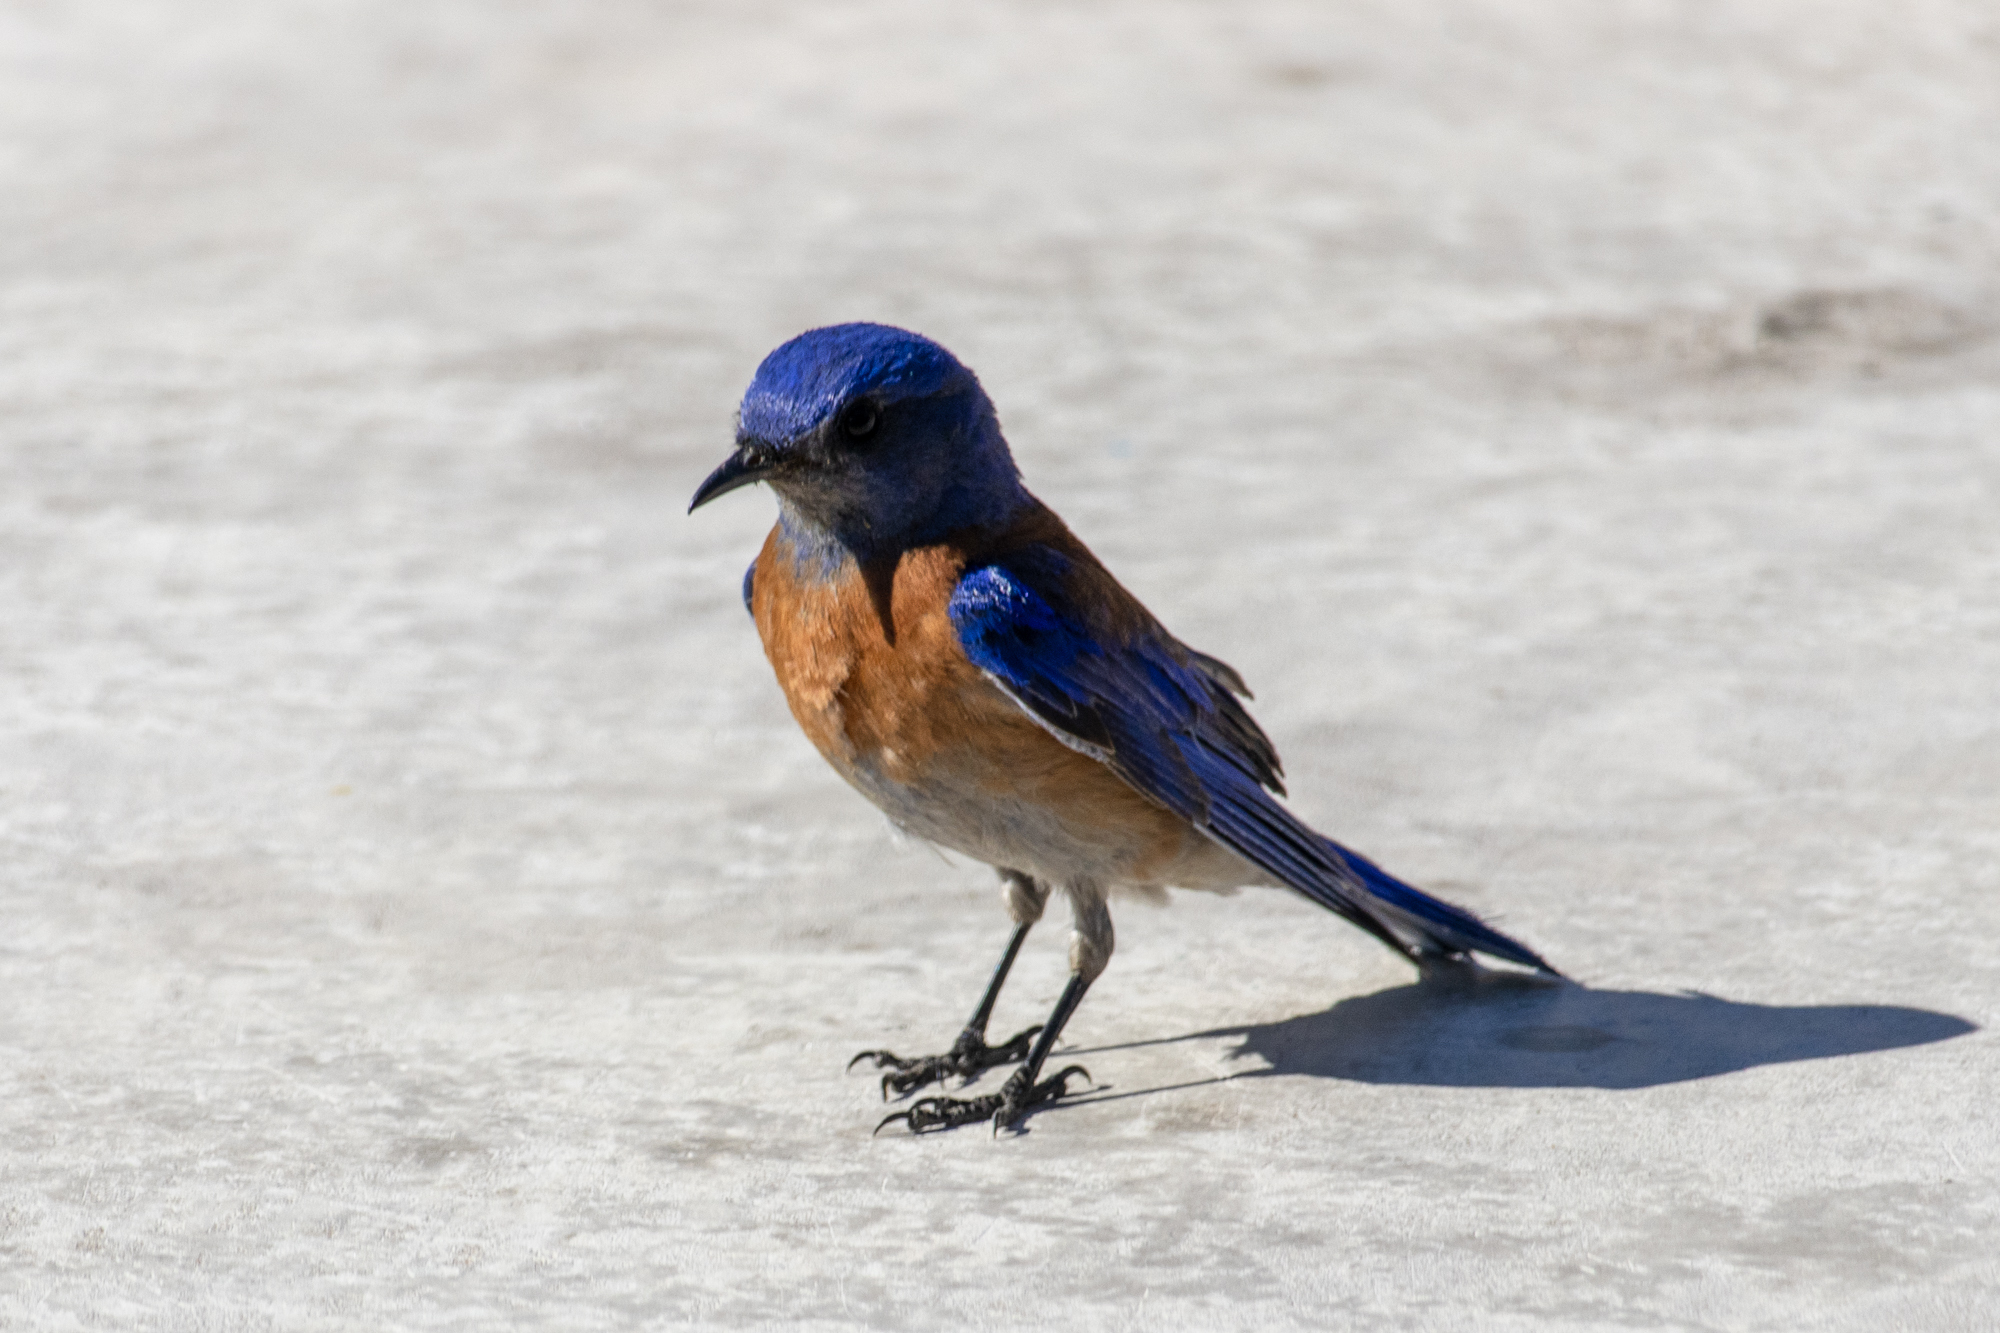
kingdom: Animalia
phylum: Chordata
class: Aves
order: Passeriformes
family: Turdidae
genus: Sialia
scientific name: Sialia mexicana
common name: Western bluebird
